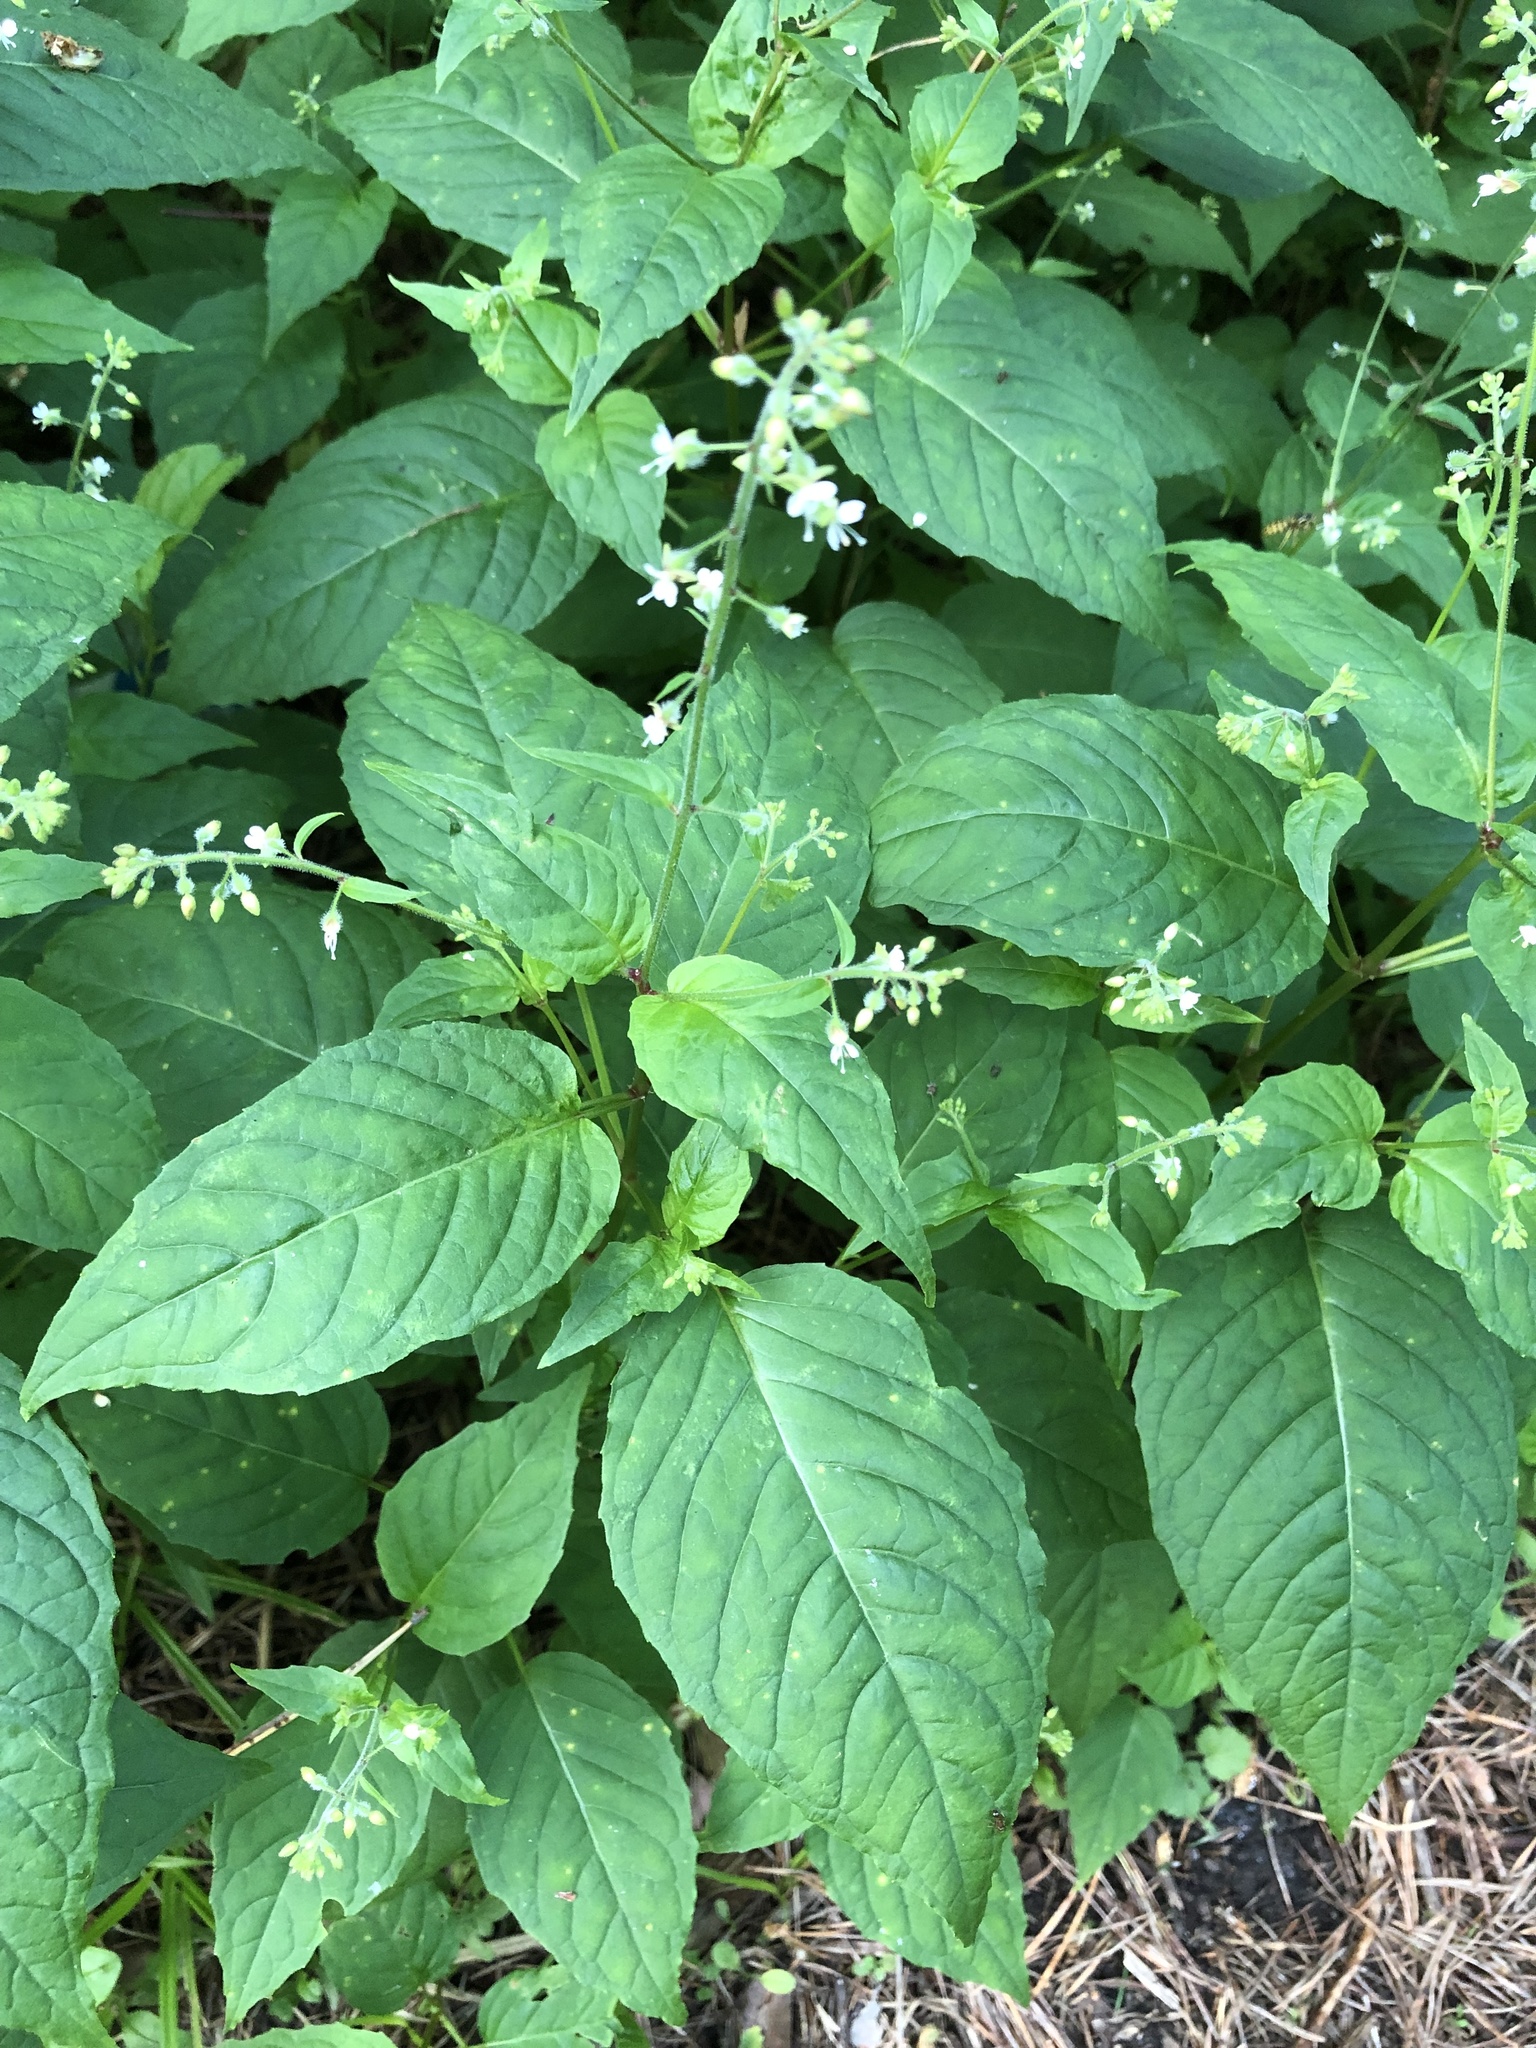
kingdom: Plantae
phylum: Tracheophyta
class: Magnoliopsida
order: Myrtales
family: Onagraceae
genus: Circaea
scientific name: Circaea canadensis
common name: Broad-leaved enchanter's nightshade
